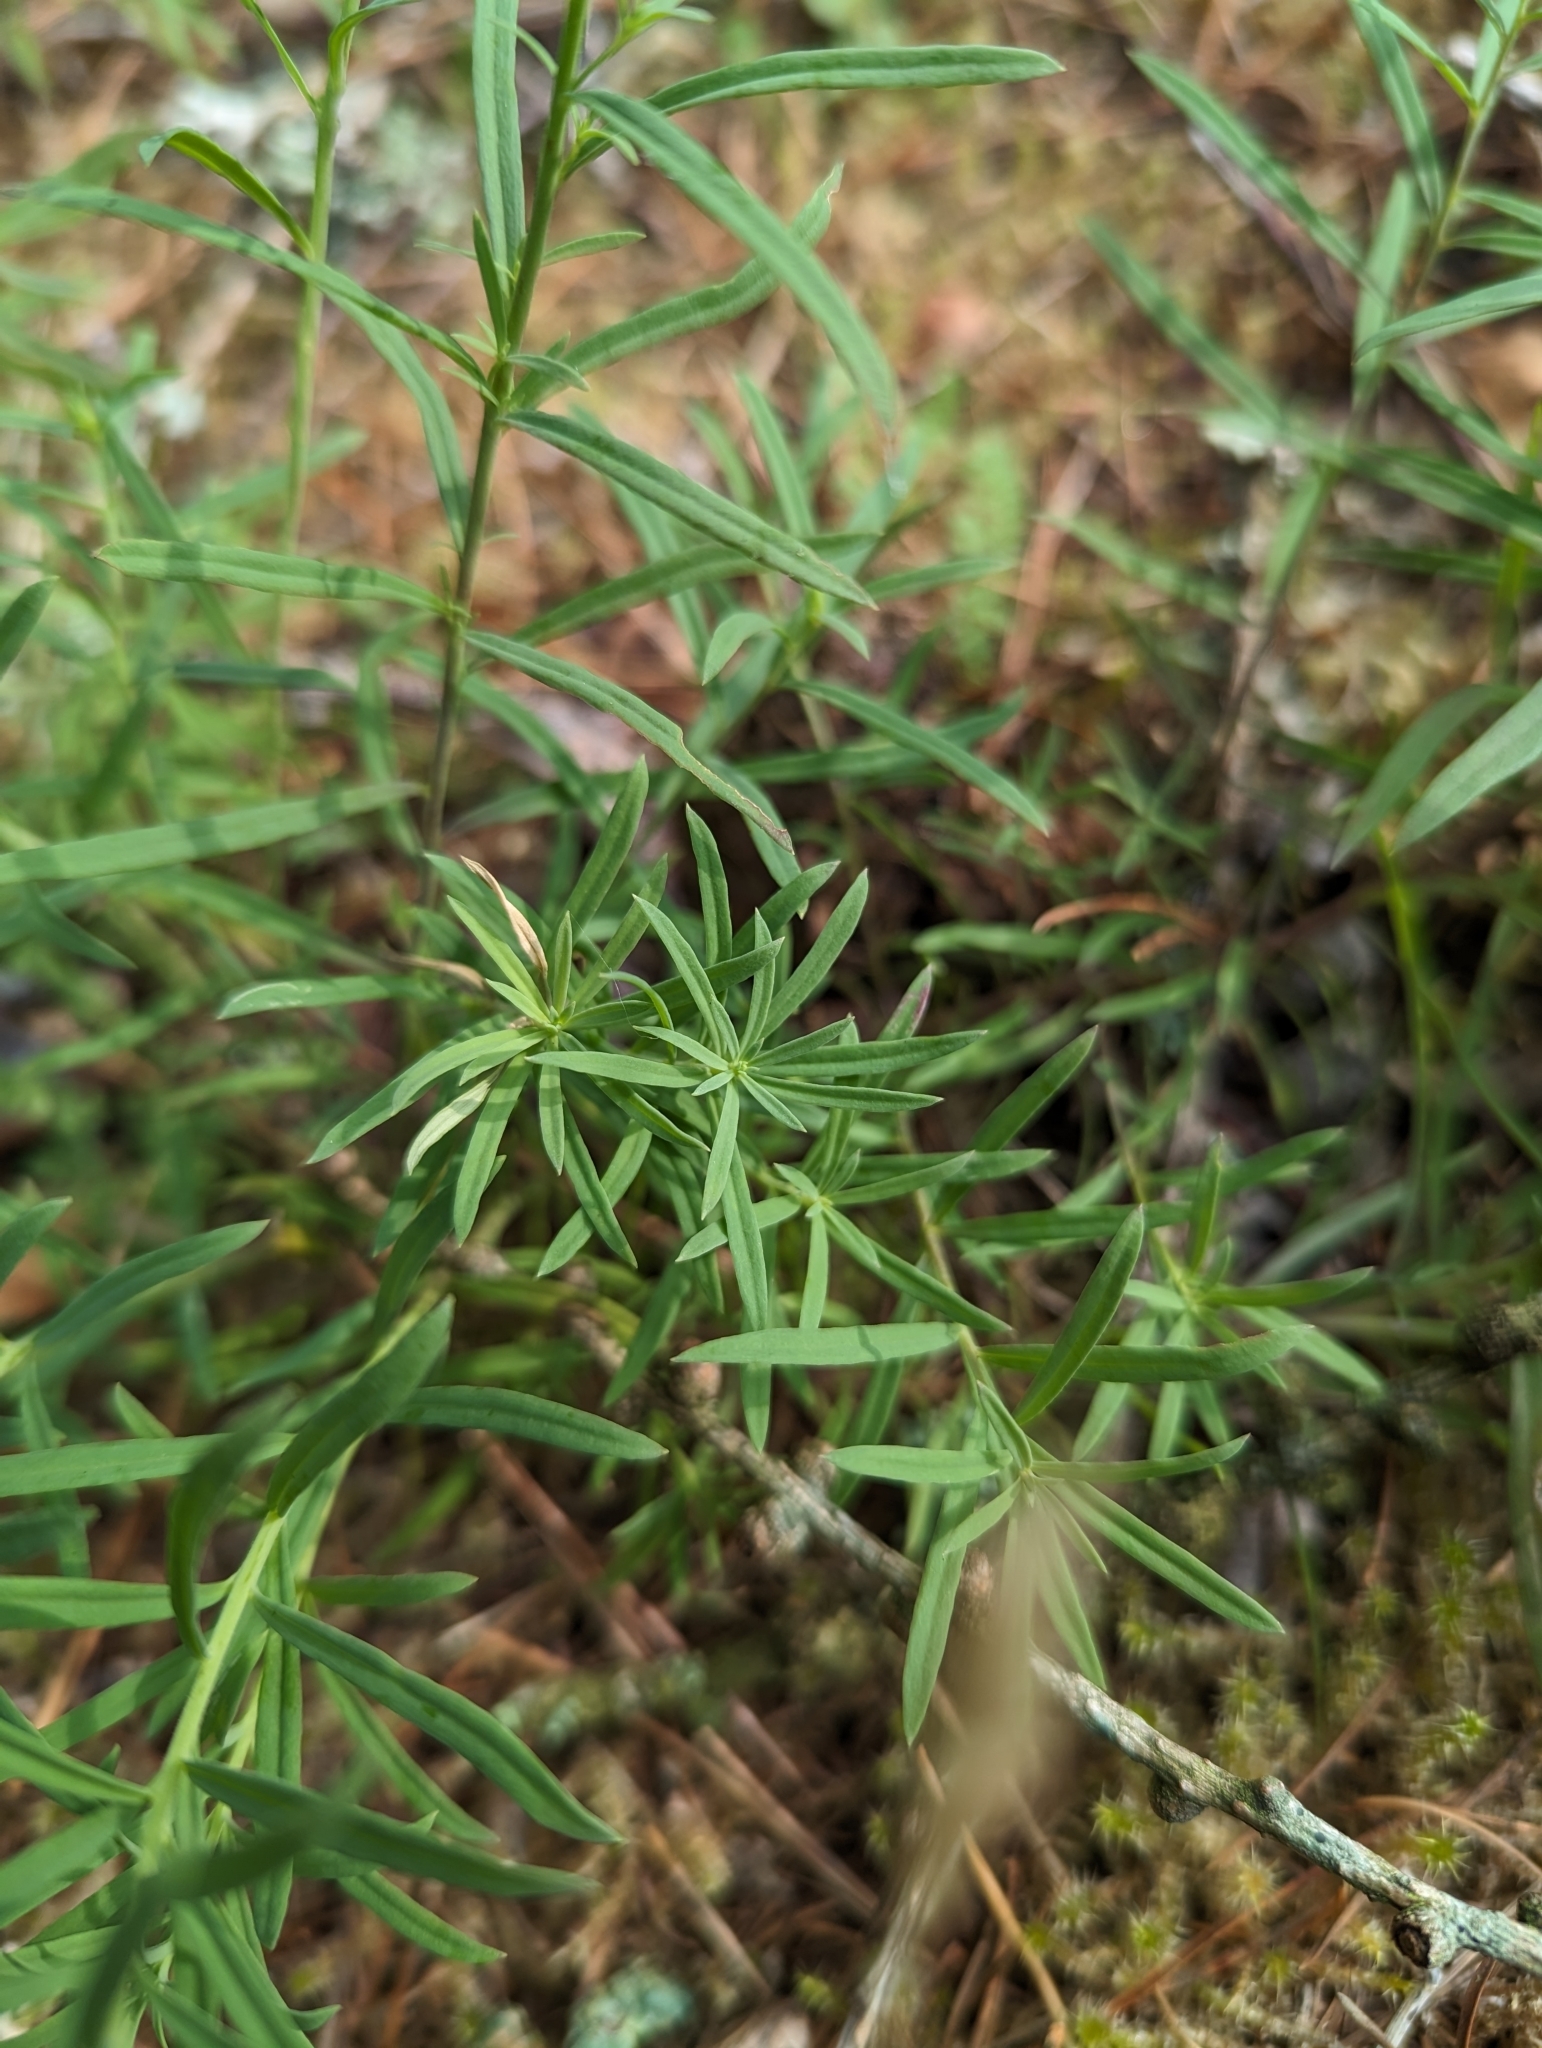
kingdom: Plantae
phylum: Tracheophyta
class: Magnoliopsida
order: Lamiales
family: Plantaginaceae
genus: Linaria
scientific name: Linaria vulgaris
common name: Butter and eggs
